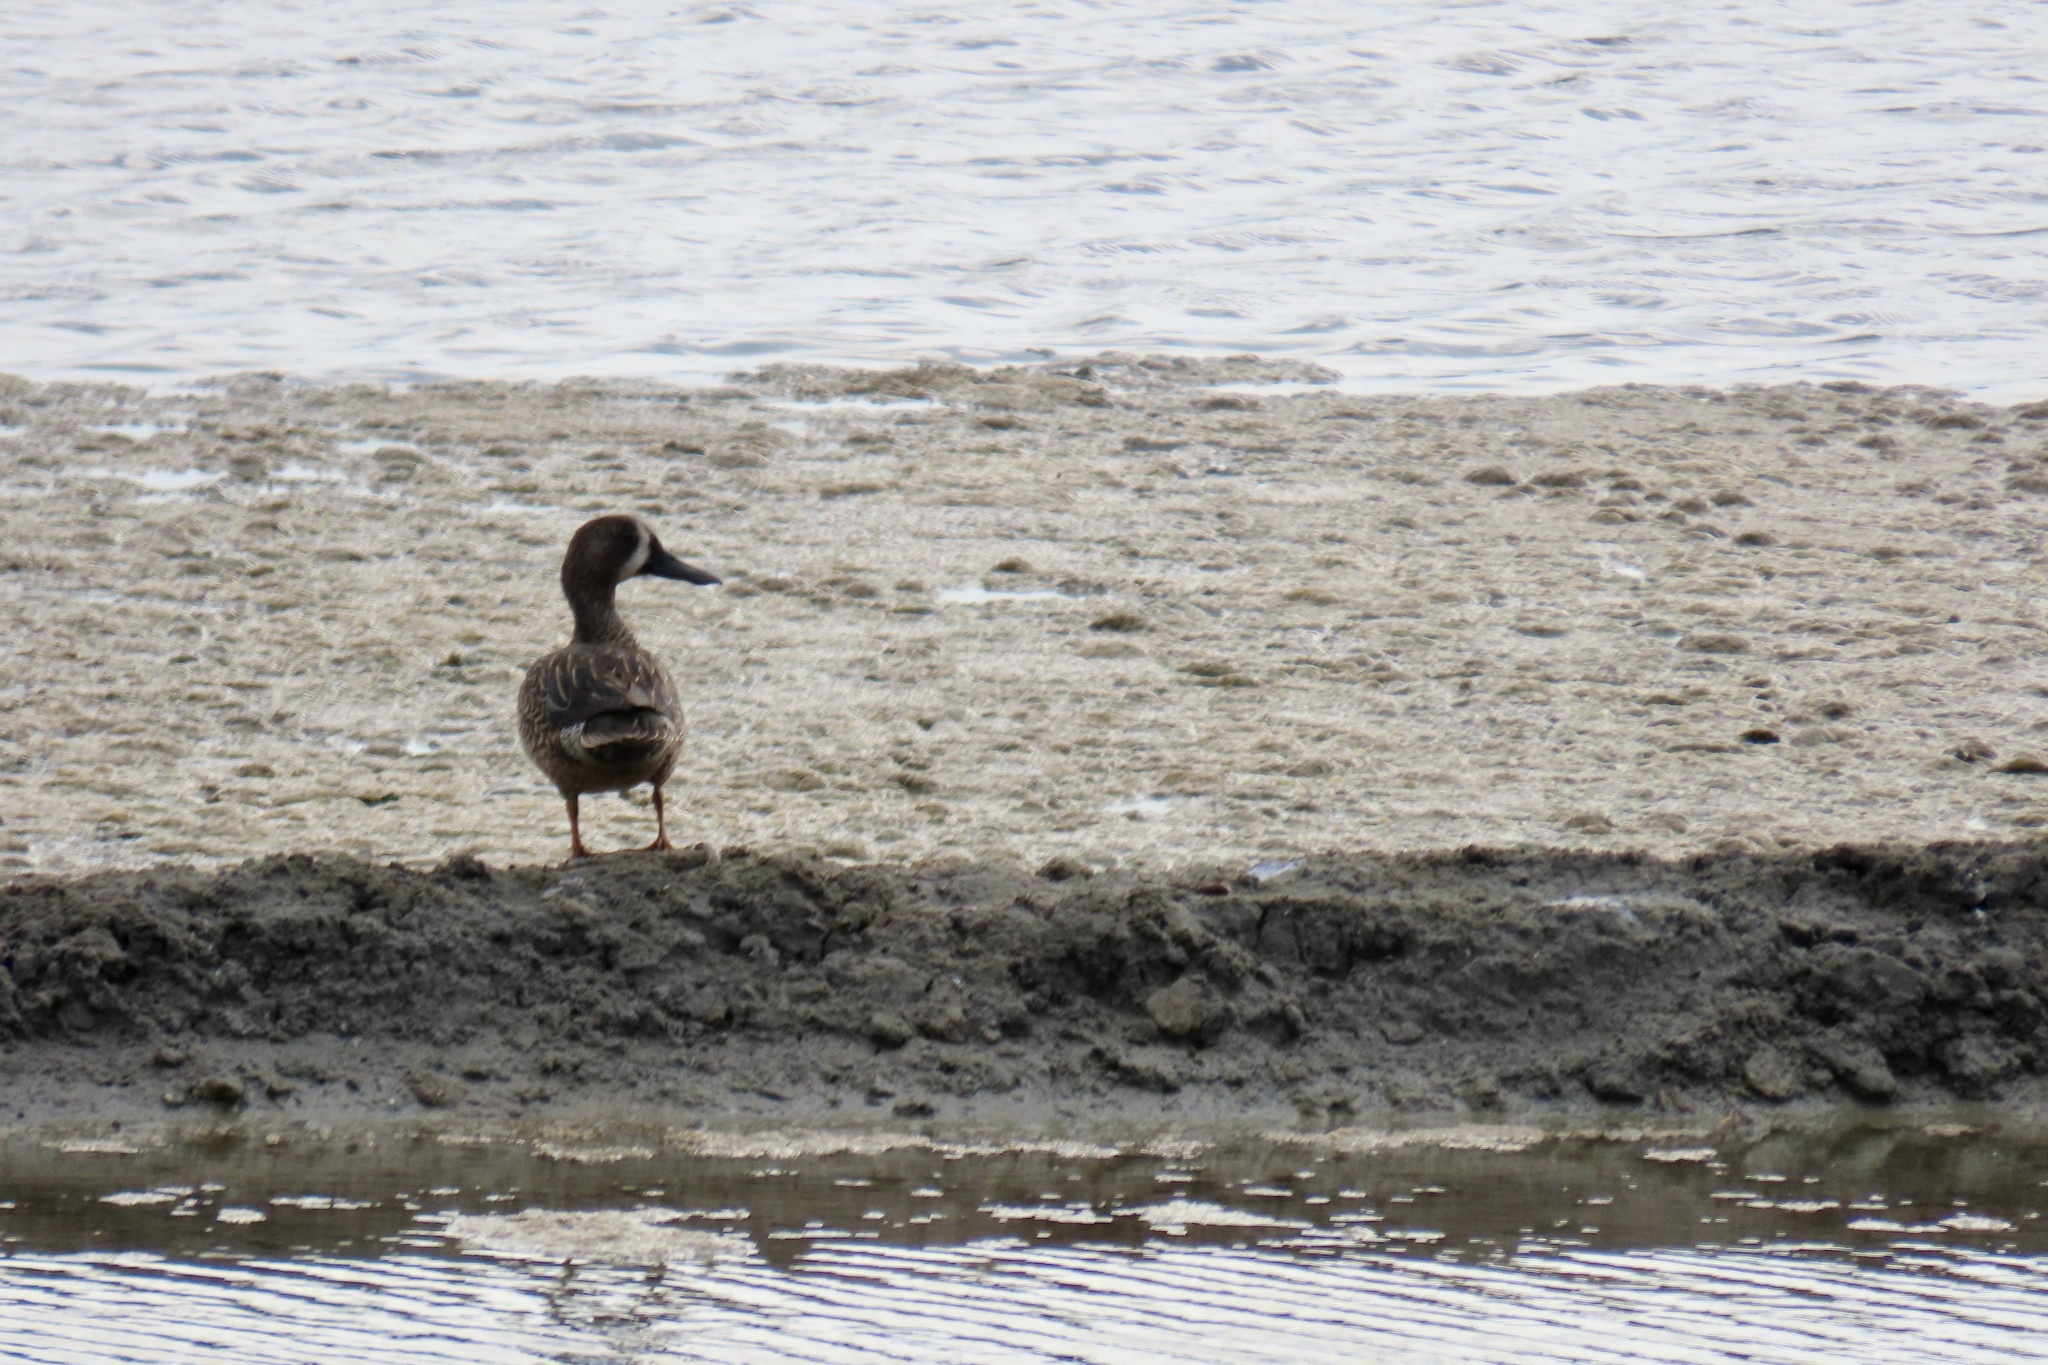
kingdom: Animalia
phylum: Chordata
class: Aves
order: Anseriformes
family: Anatidae
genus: Spatula
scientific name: Spatula discors
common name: Blue-winged teal
